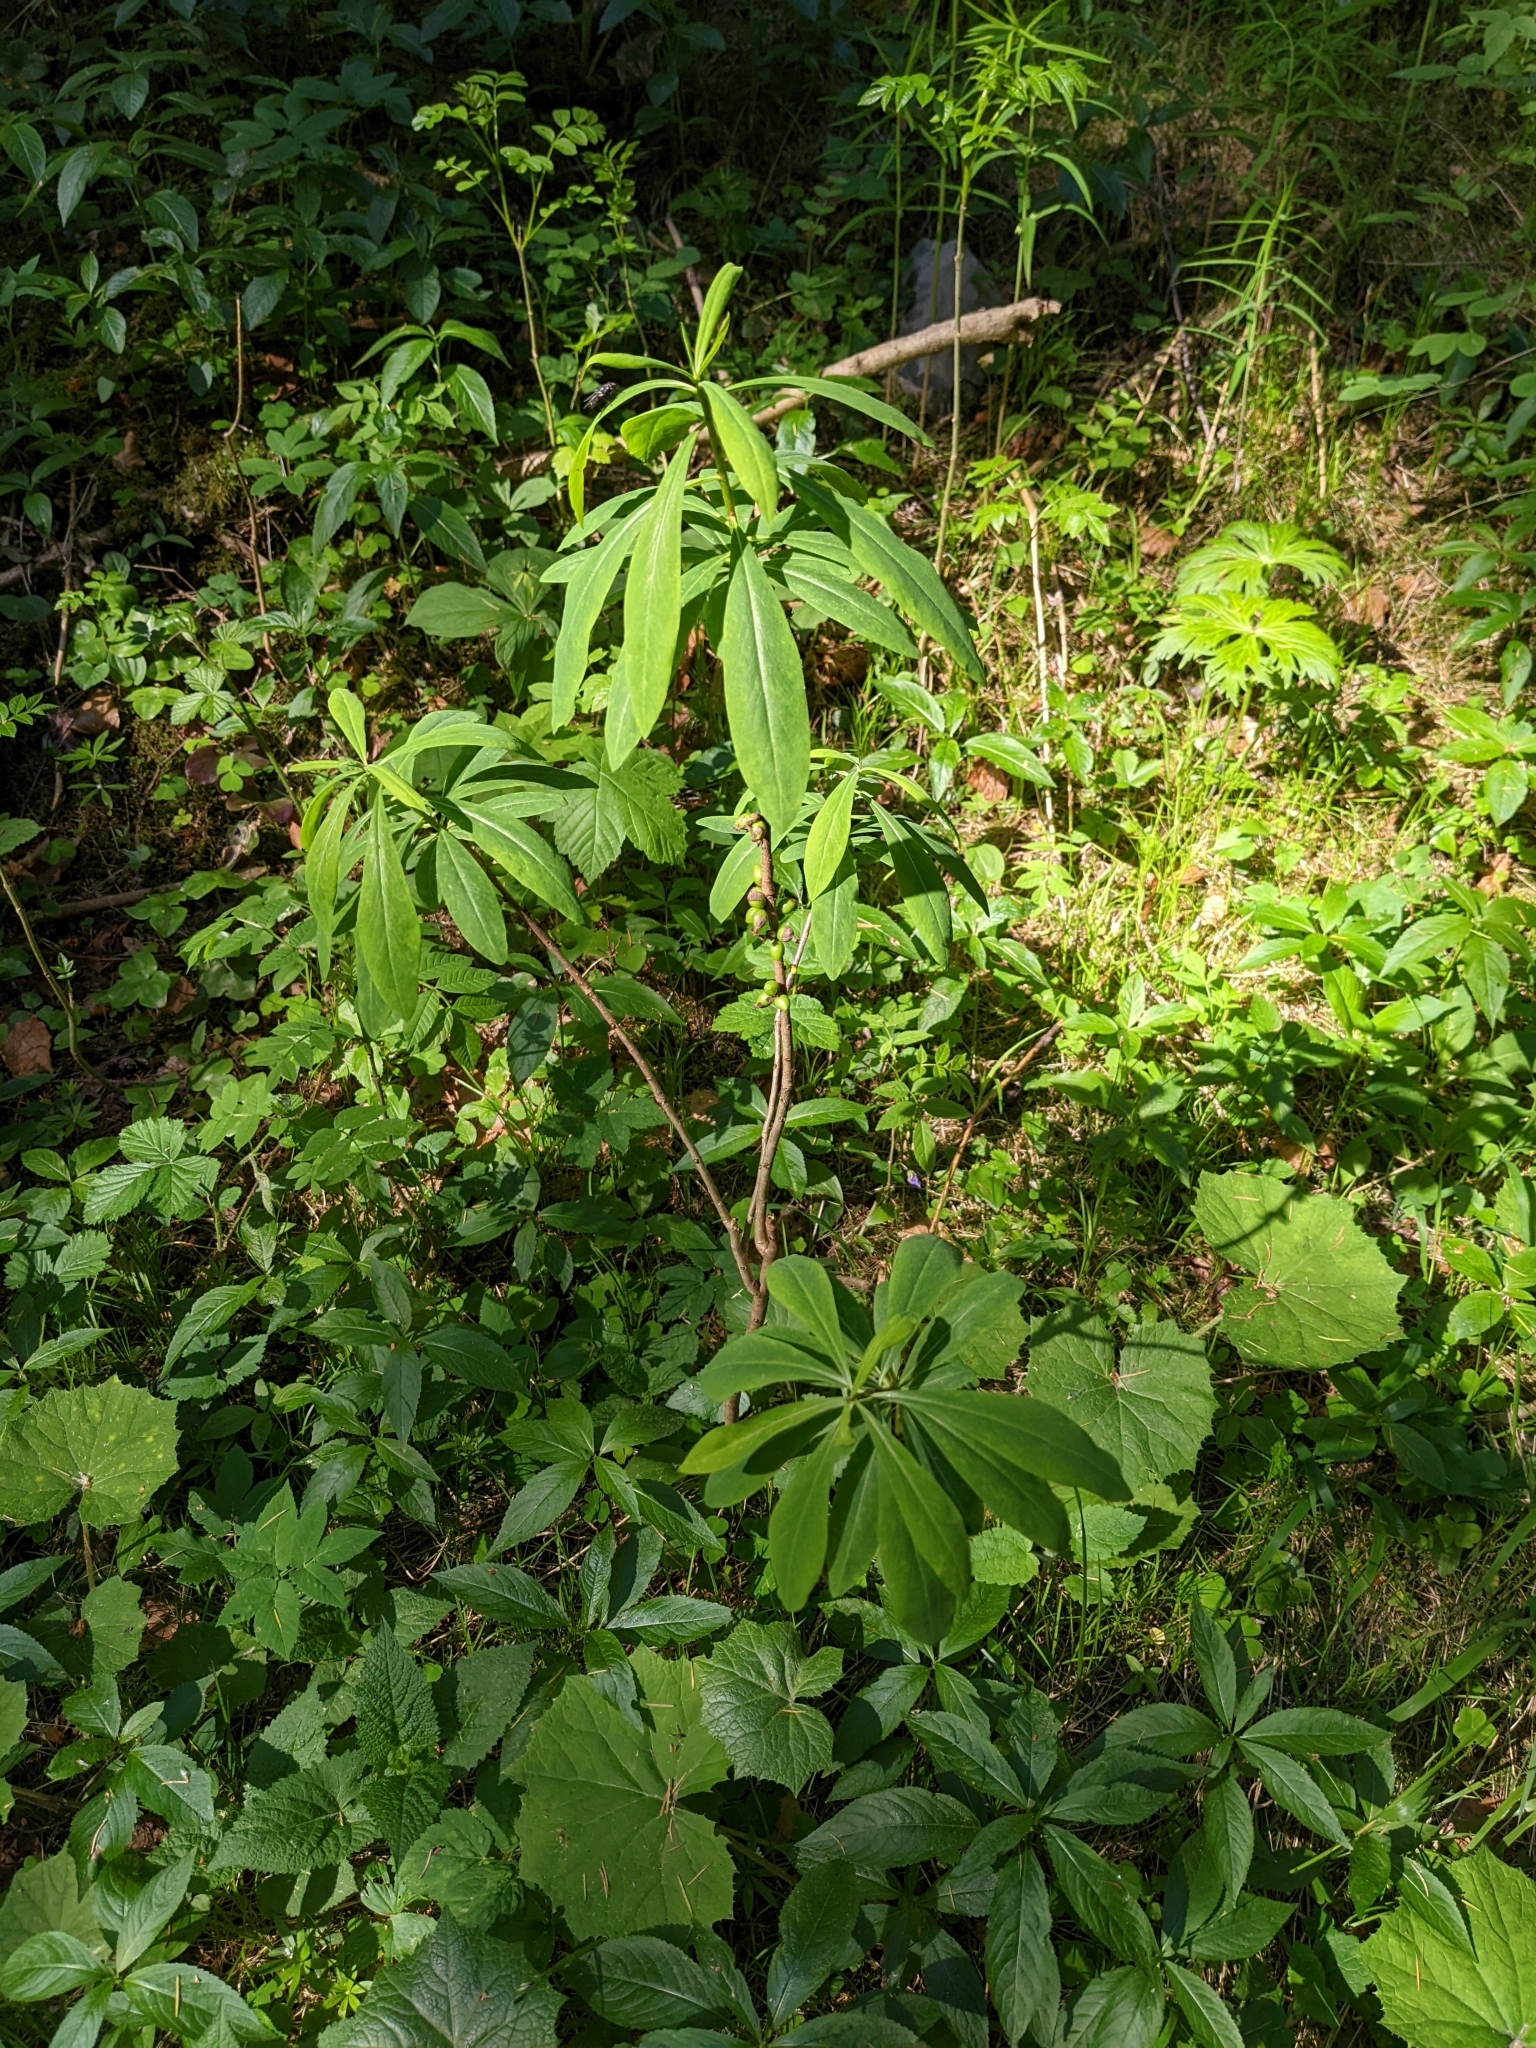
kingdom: Plantae
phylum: Tracheophyta
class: Magnoliopsida
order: Malvales
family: Thymelaeaceae
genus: Daphne
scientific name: Daphne mezereum
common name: Mezereon
